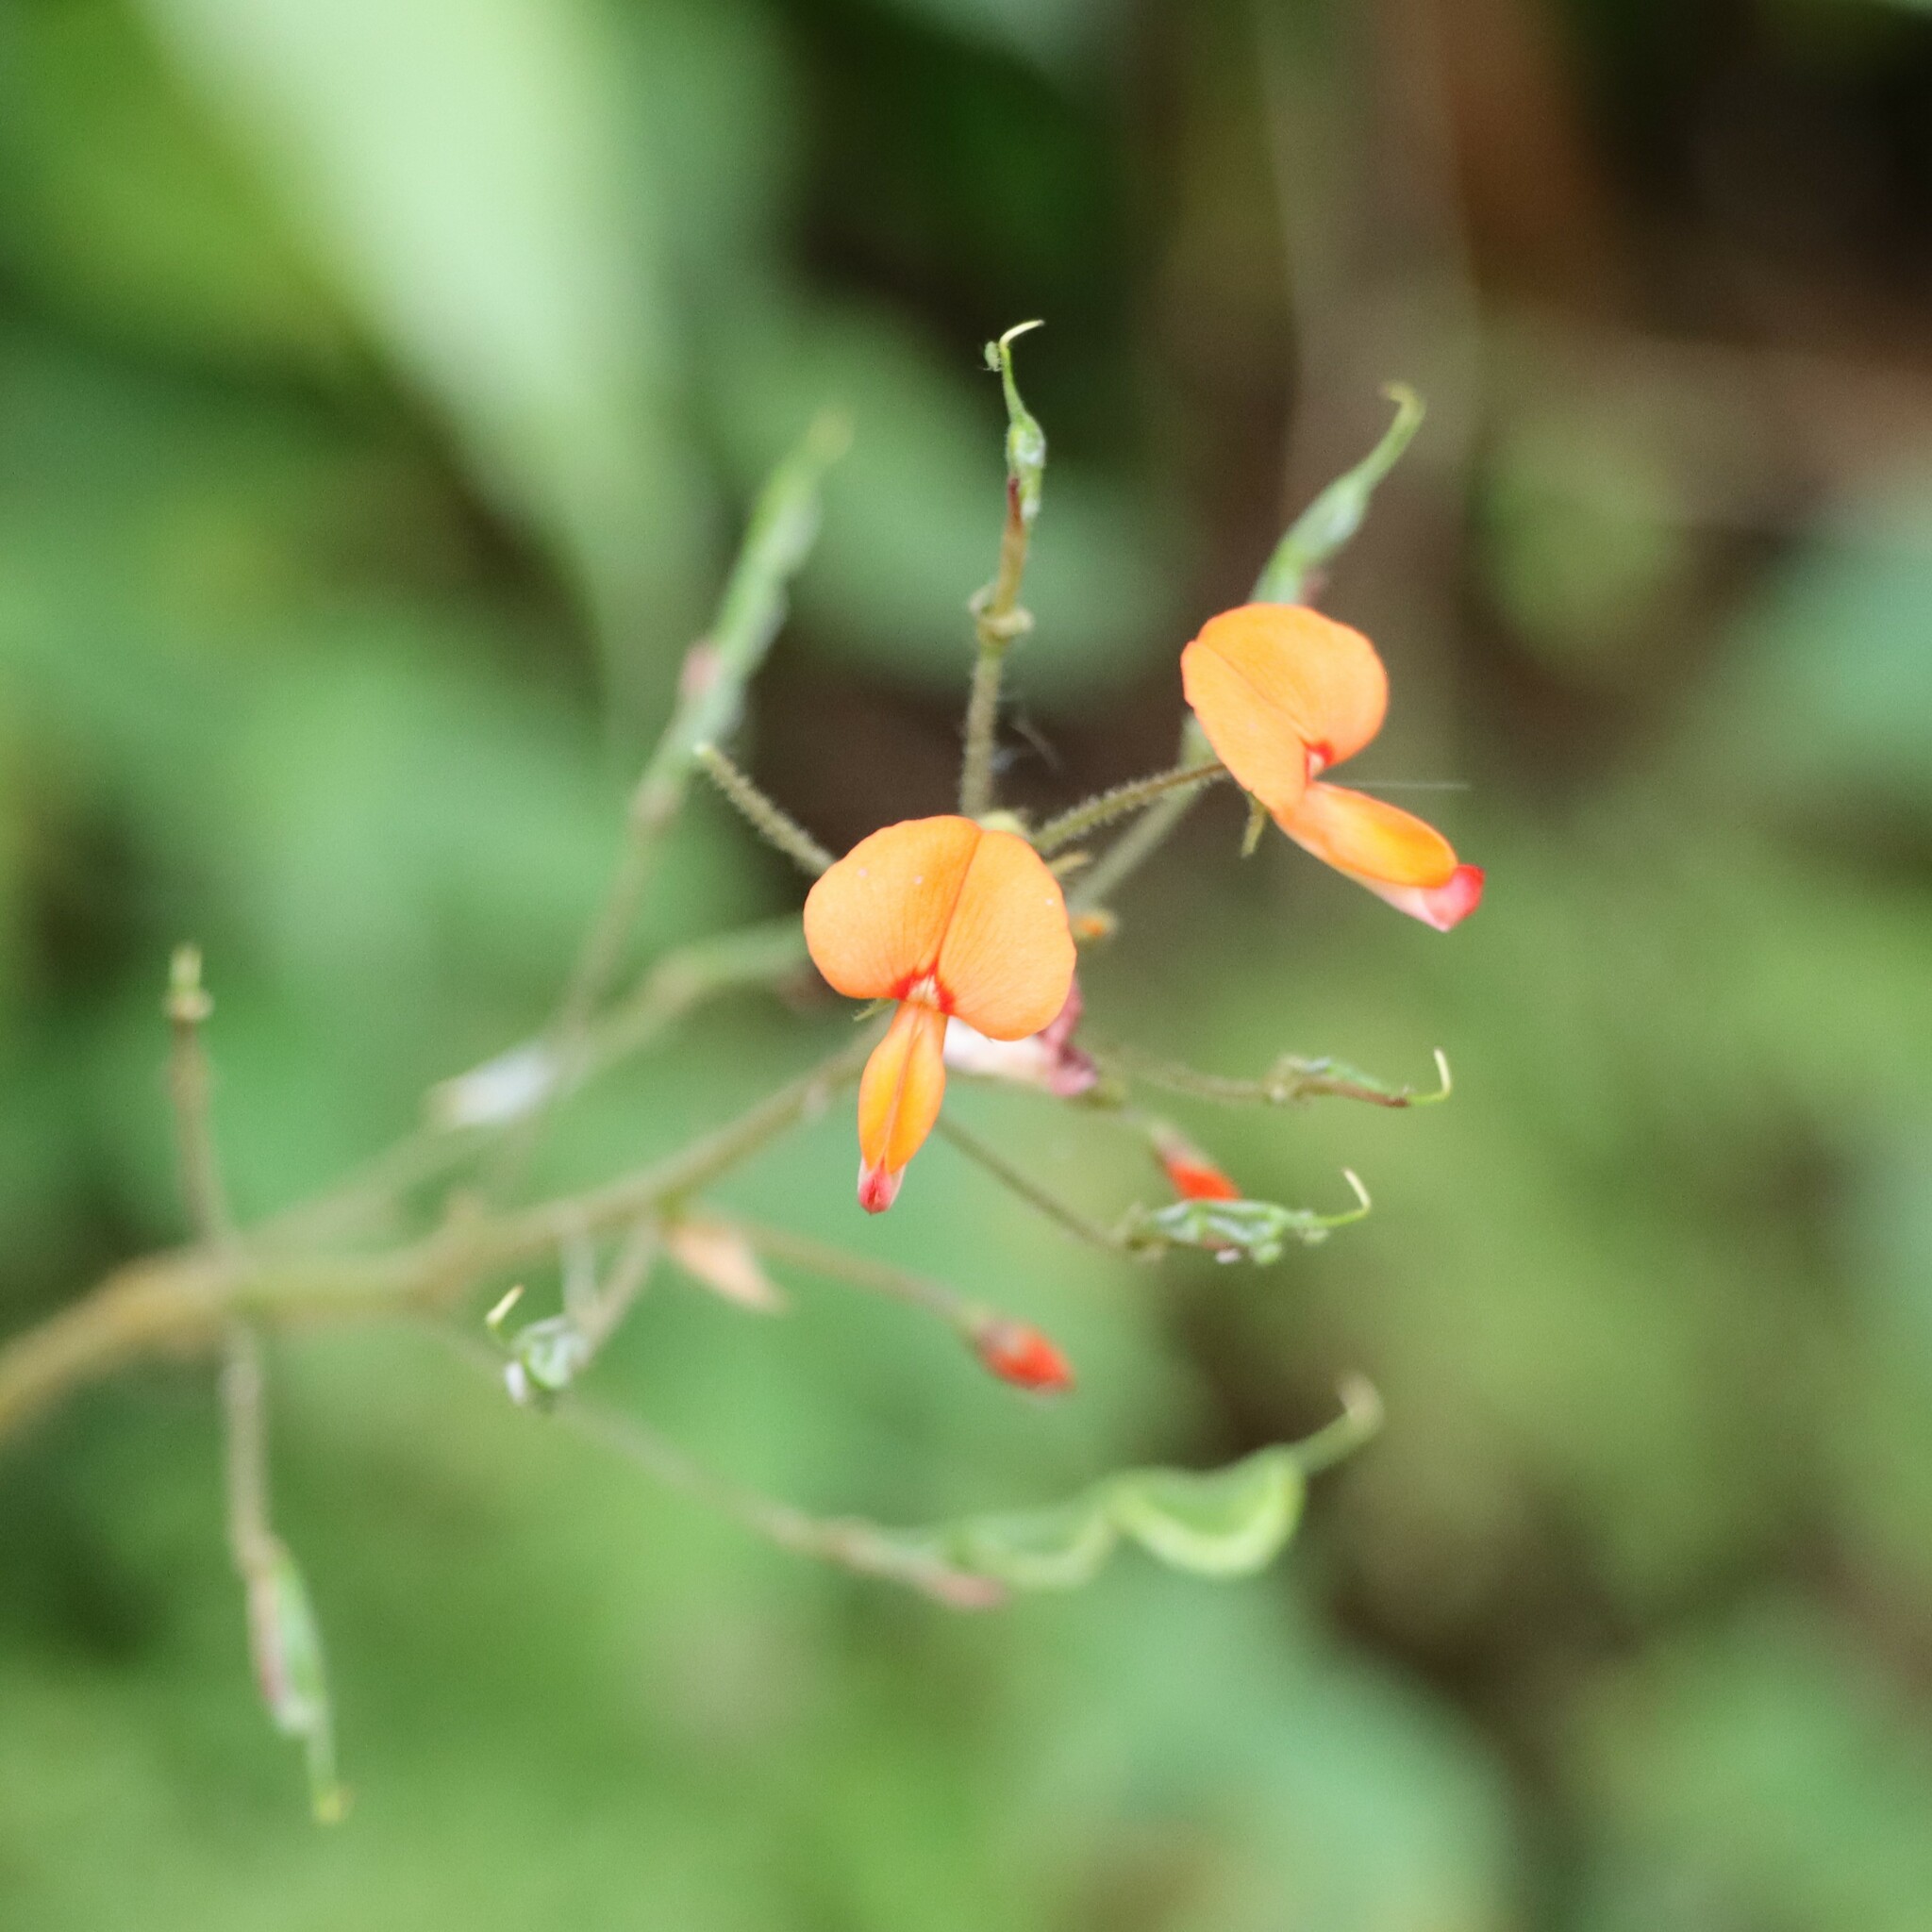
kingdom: Plantae
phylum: Tracheophyta
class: Magnoliopsida
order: Fabales
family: Fabaceae
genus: Hylodesmum
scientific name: Hylodesmum repandum
